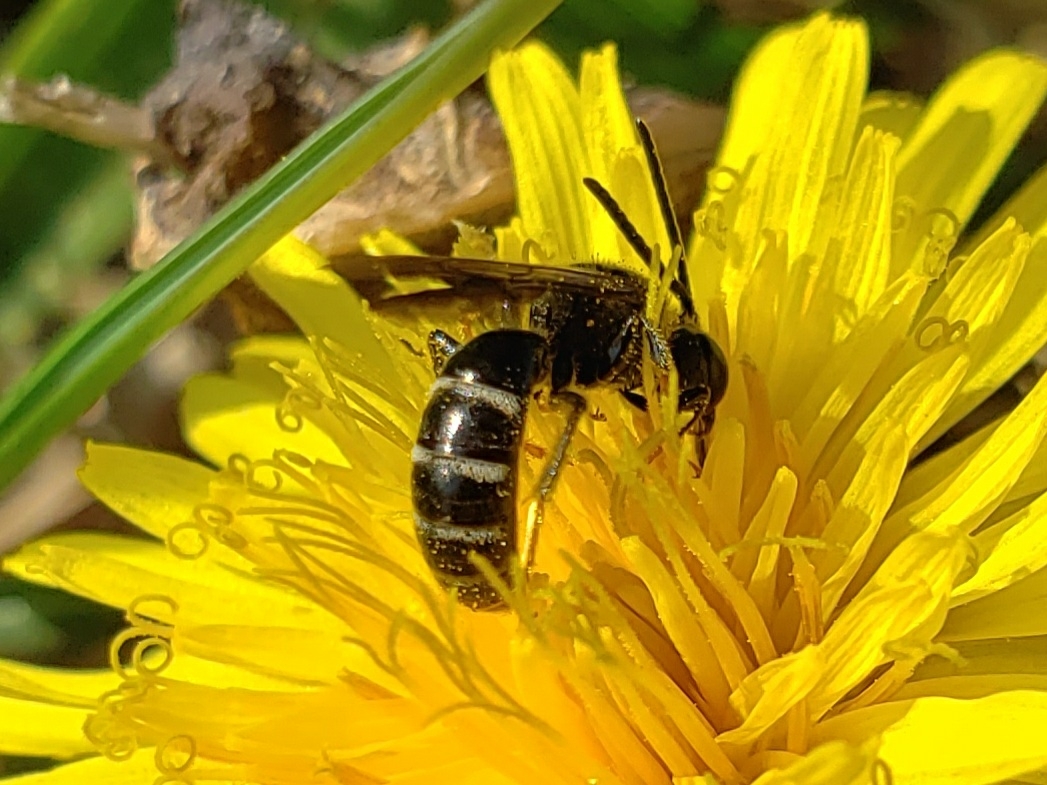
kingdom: Animalia
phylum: Arthropoda
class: Insecta
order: Hymenoptera
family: Halictidae
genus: Lasioglossum
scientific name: Lasioglossum
